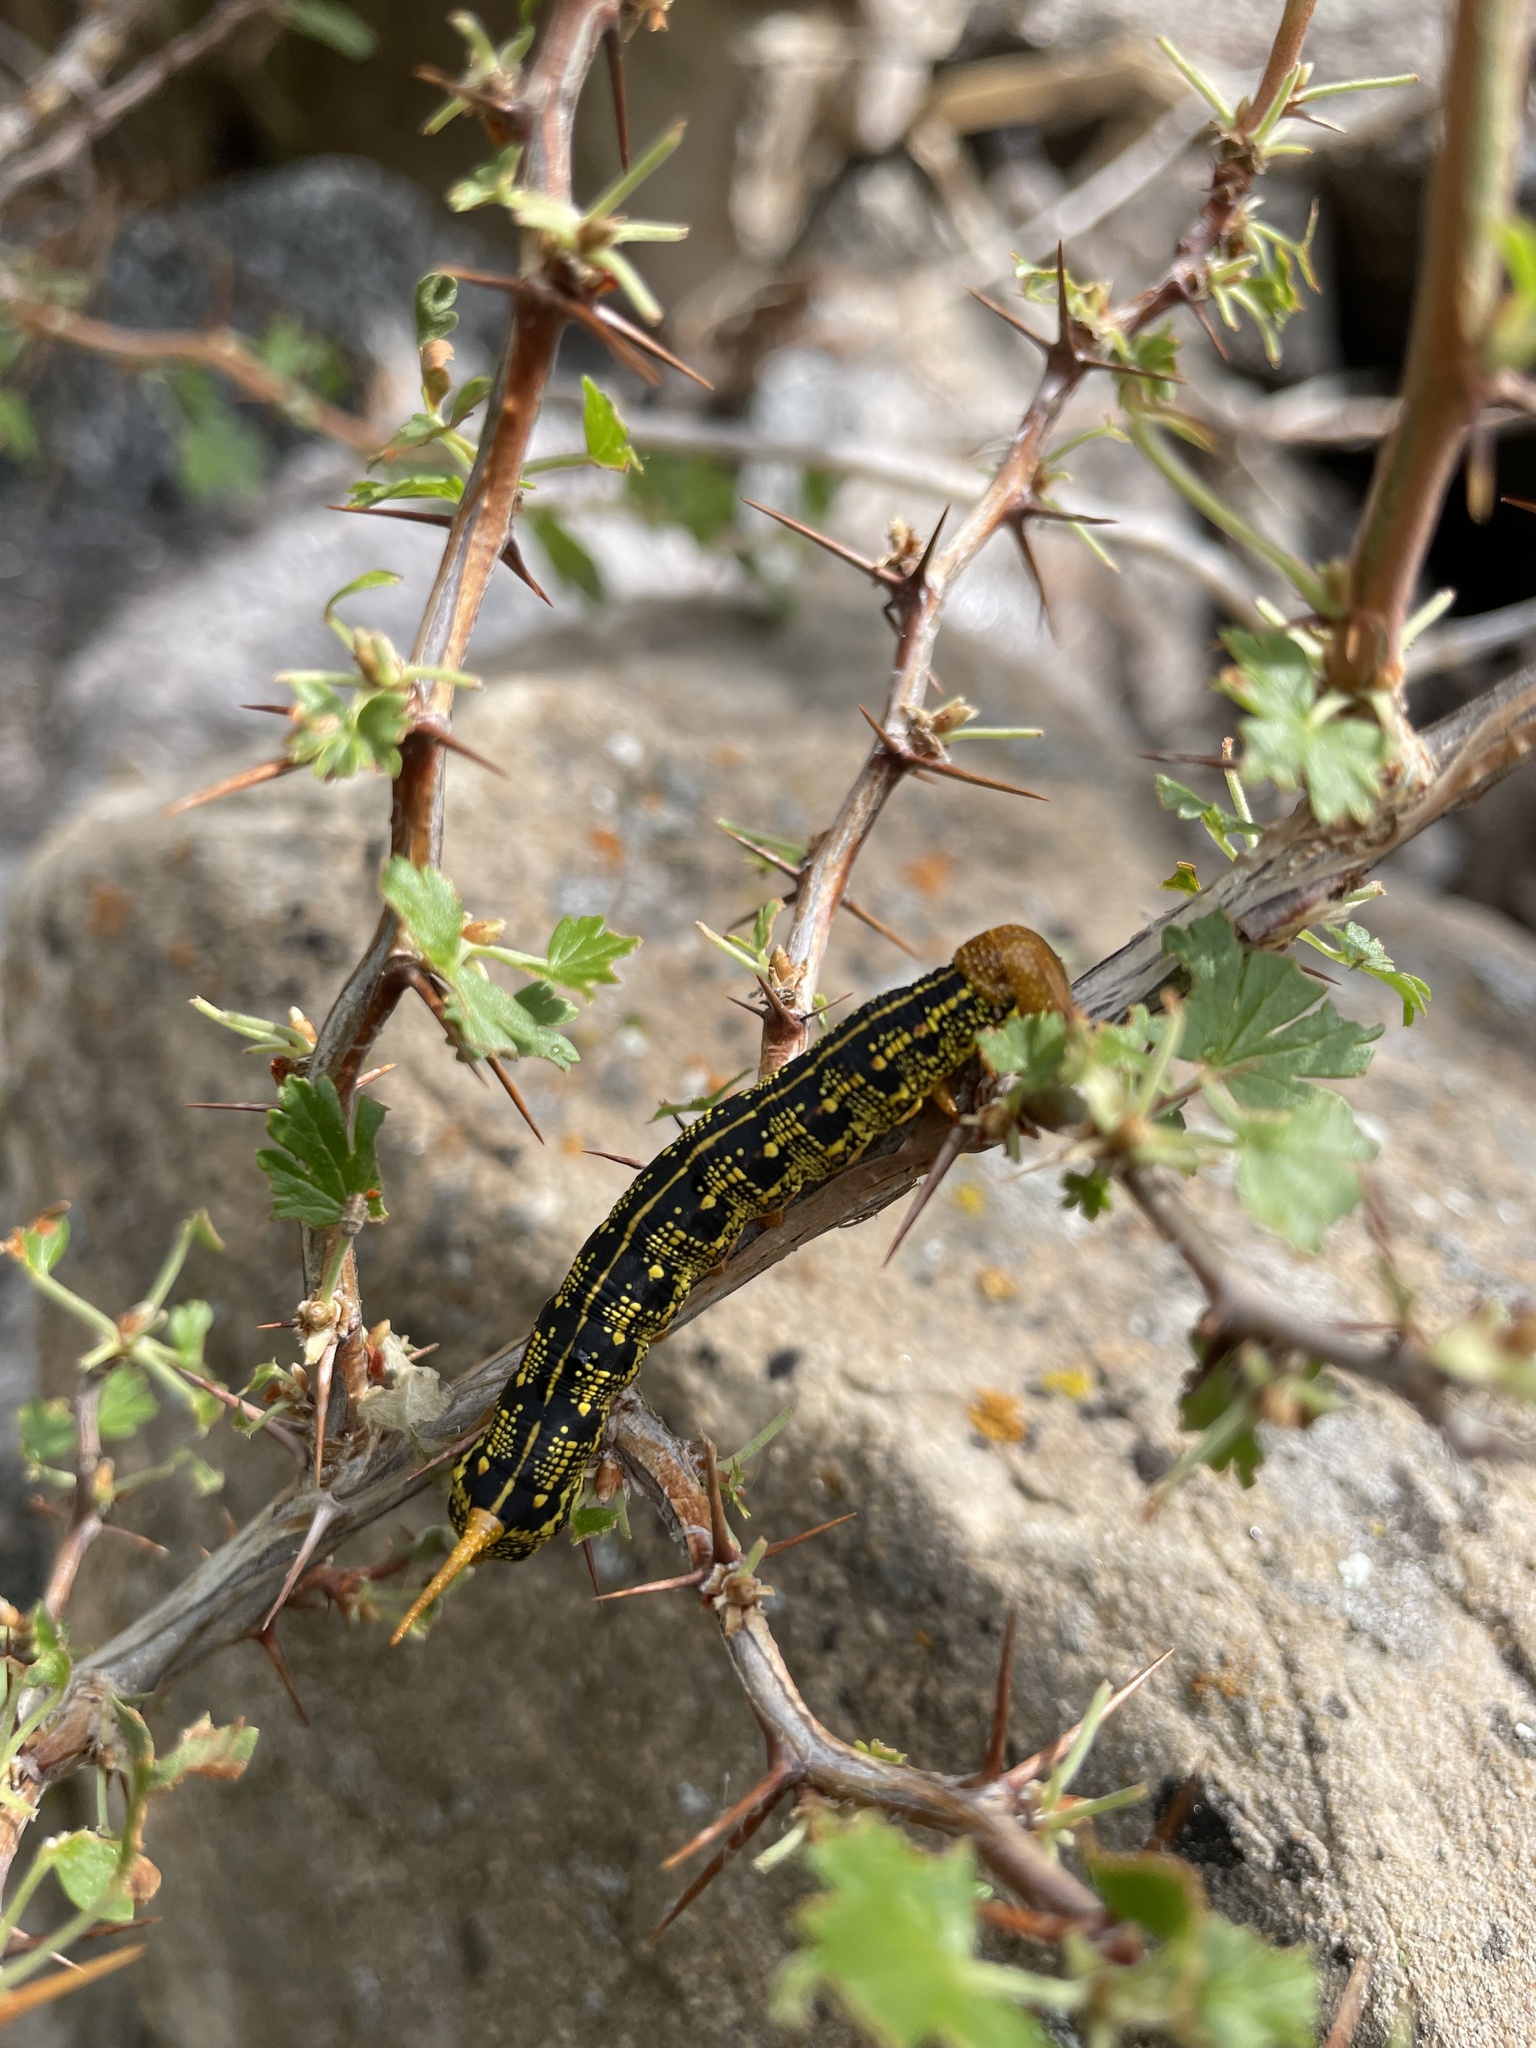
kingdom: Animalia
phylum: Arthropoda
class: Insecta
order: Lepidoptera
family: Sphingidae
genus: Hyles
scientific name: Hyles lineata
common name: White-lined sphinx
